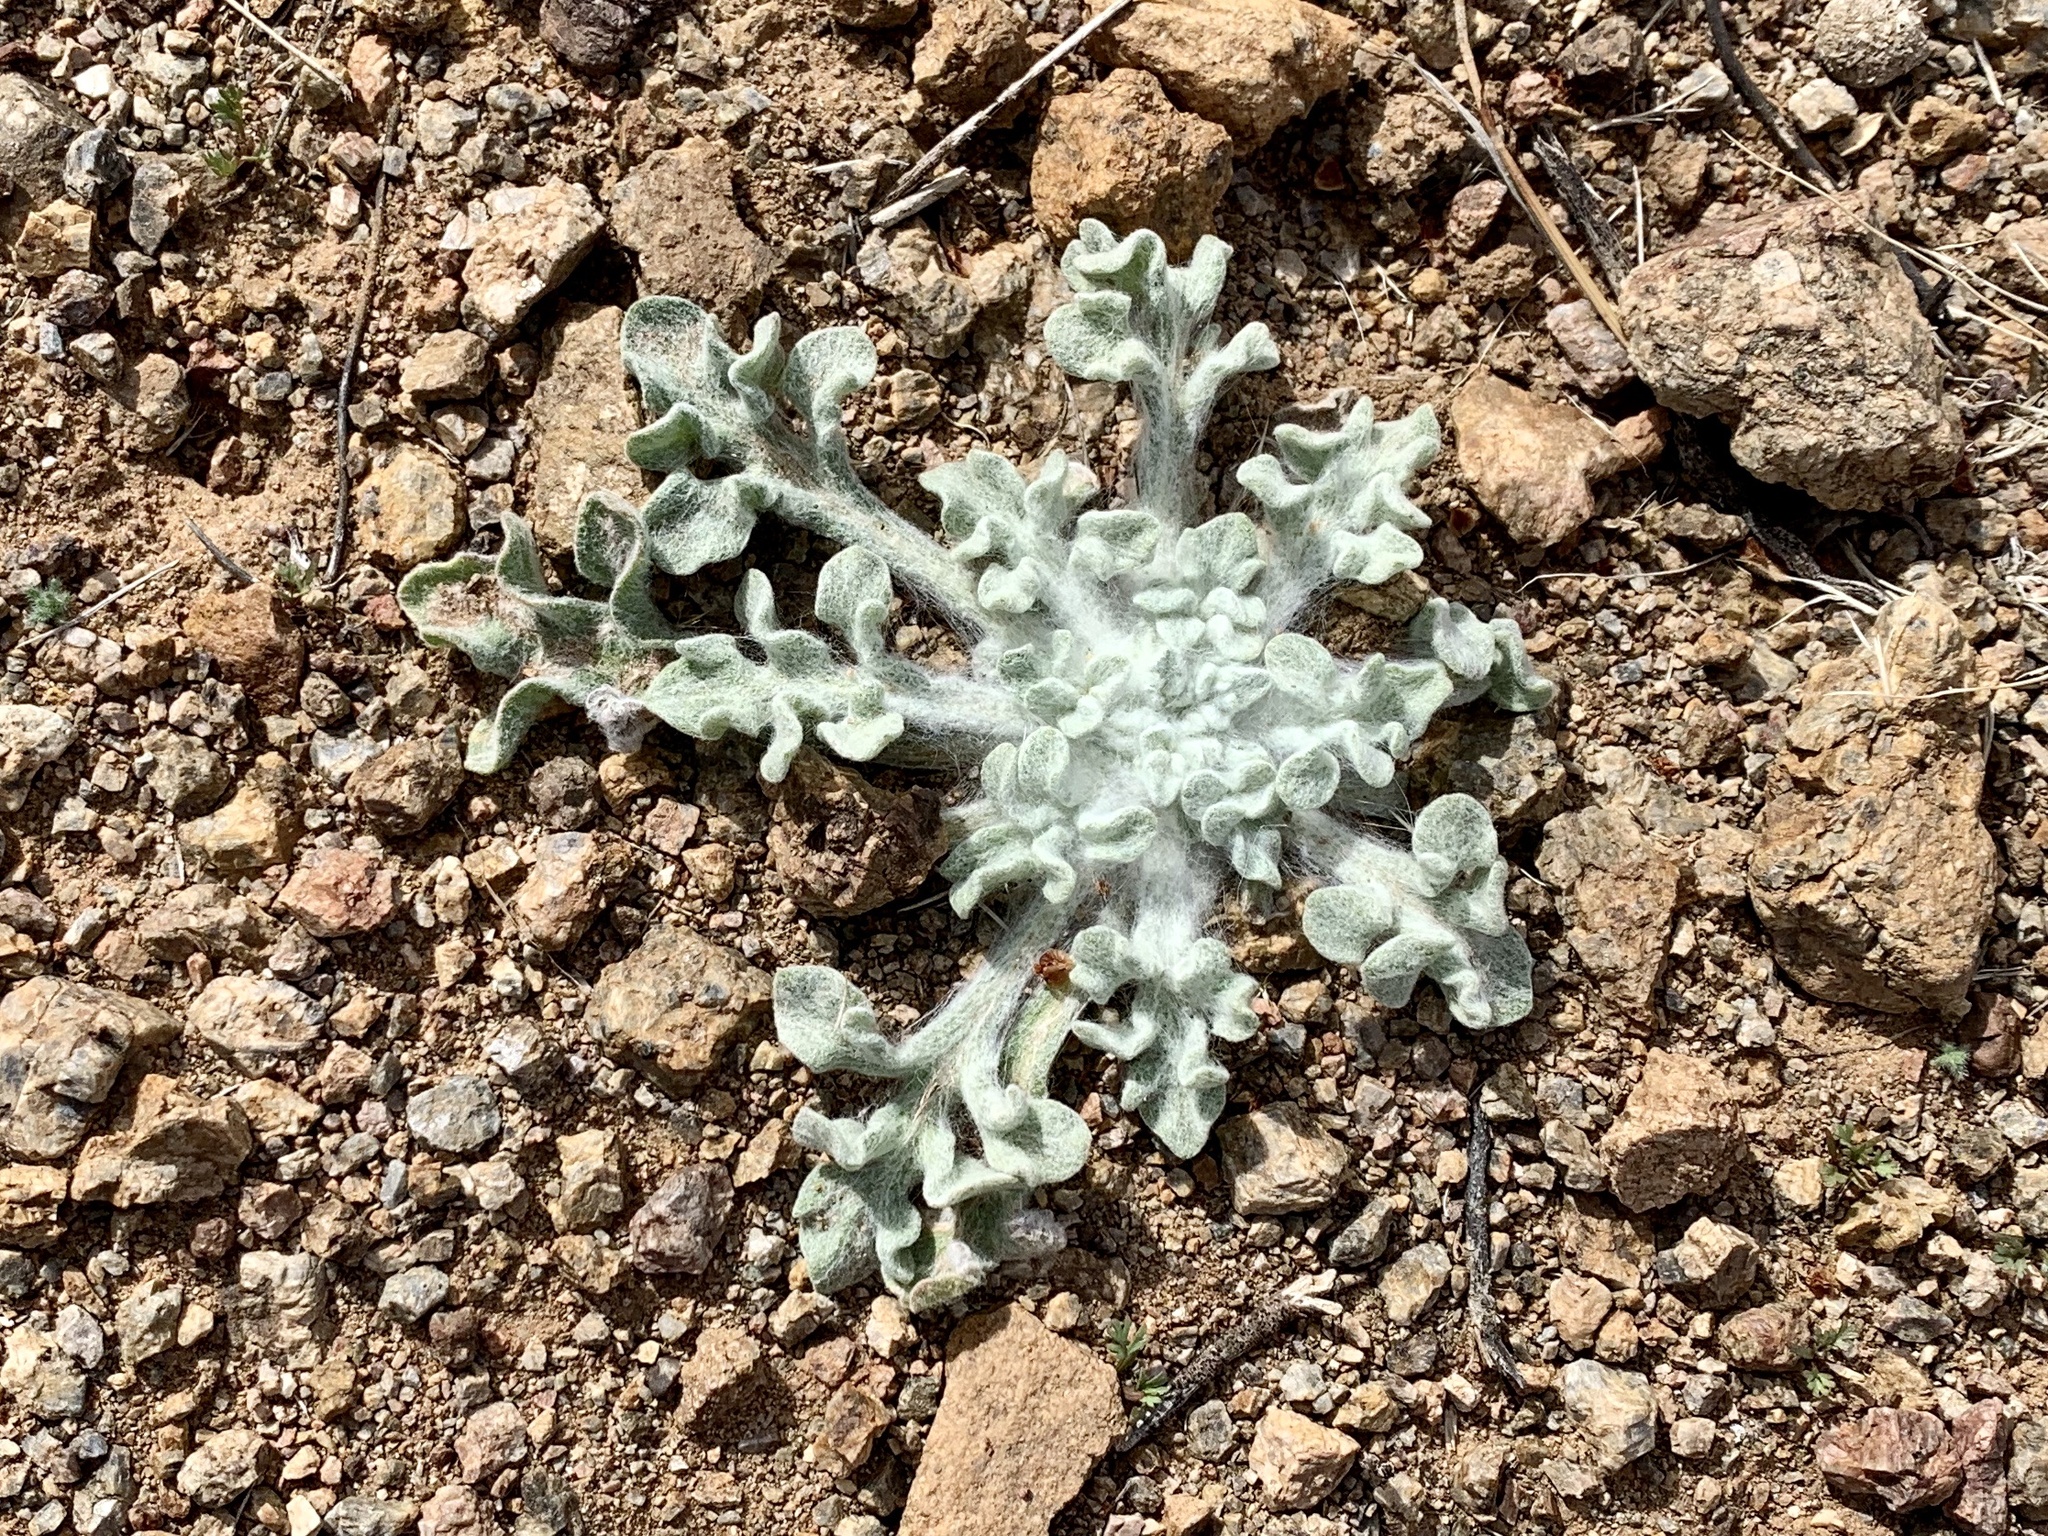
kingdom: Plantae
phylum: Tracheophyta
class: Magnoliopsida
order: Asterales
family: Asteraceae
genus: Baileya
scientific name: Baileya multiradiata
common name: Desert-marigold
